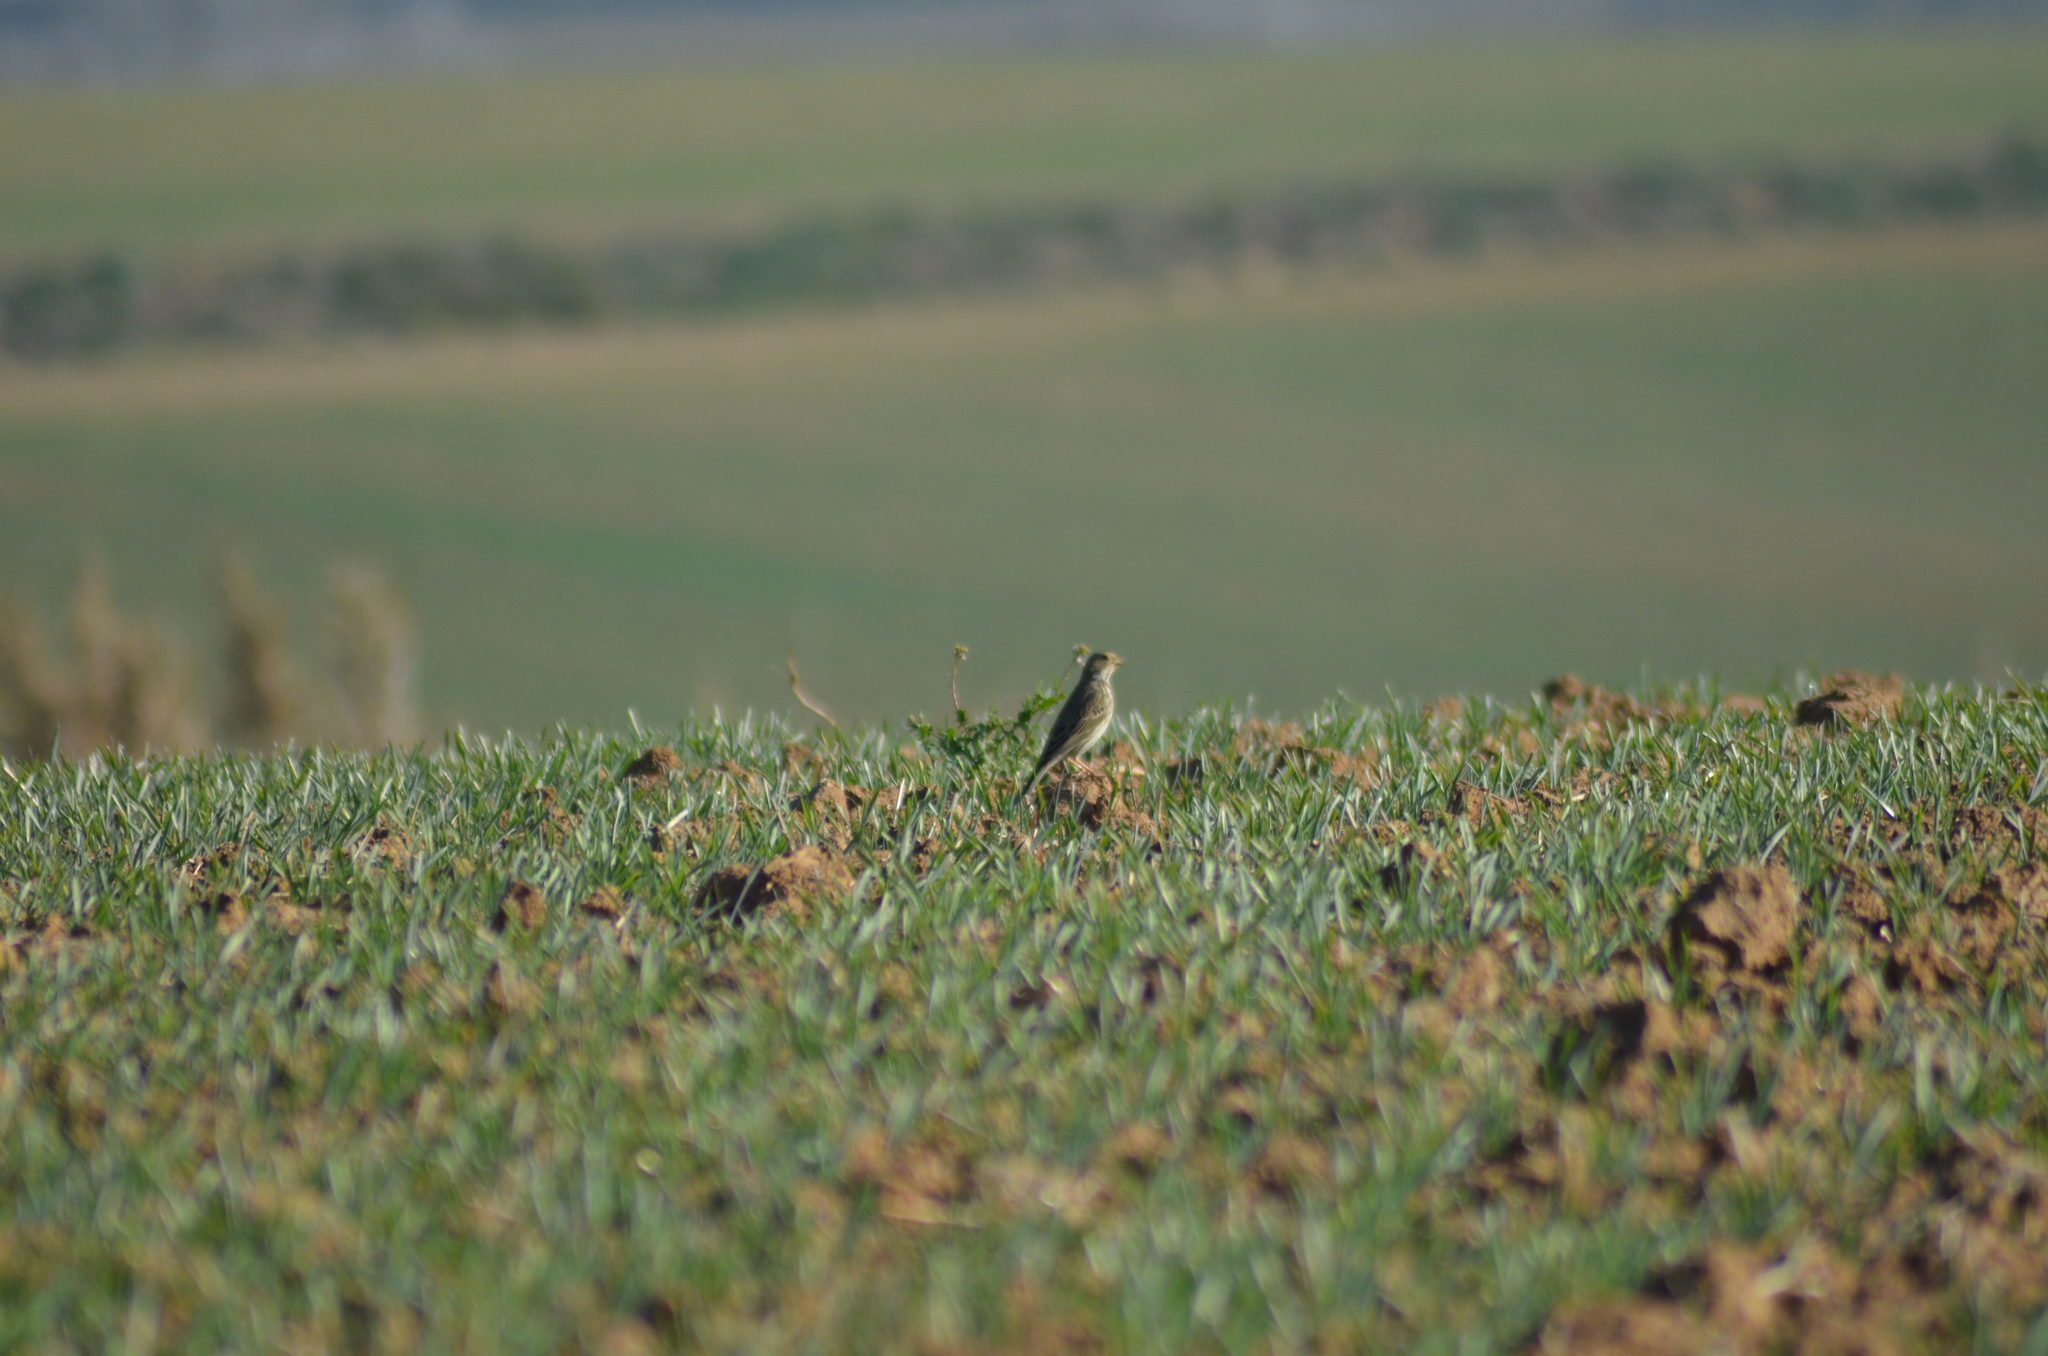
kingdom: Animalia
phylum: Chordata
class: Aves
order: Passeriformes
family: Emberizidae
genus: Emberiza
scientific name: Emberiza calandra
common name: Corn bunting
